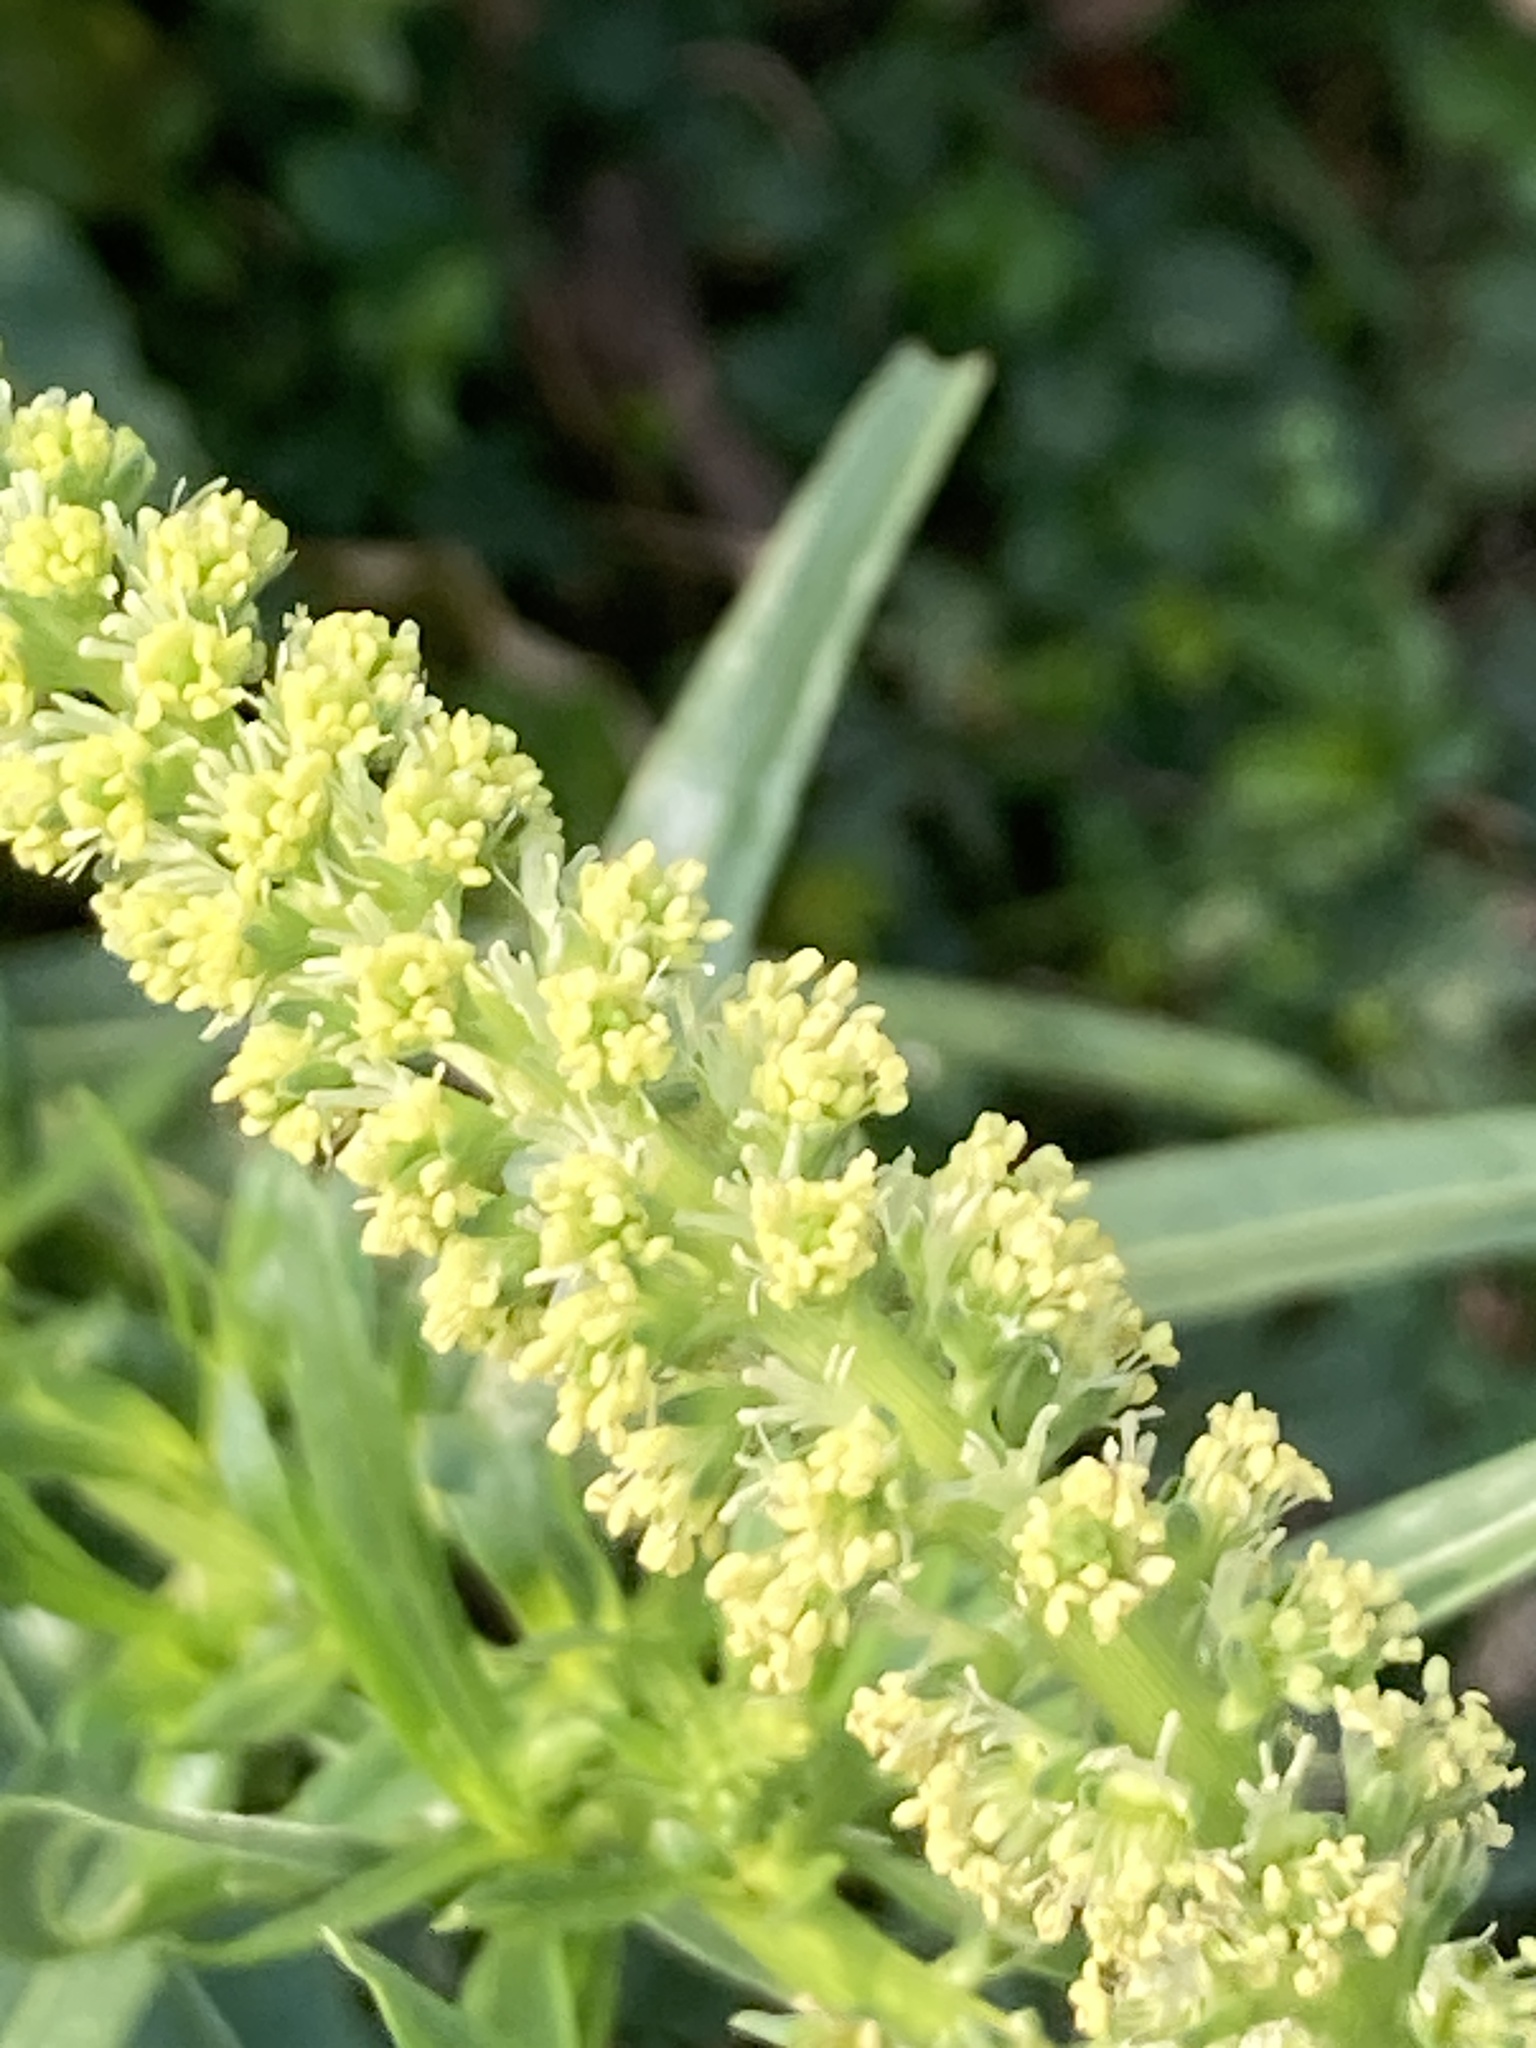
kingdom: Plantae
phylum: Tracheophyta
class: Magnoliopsida
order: Brassicales
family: Resedaceae
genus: Reseda
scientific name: Reseda luteola
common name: Weld
